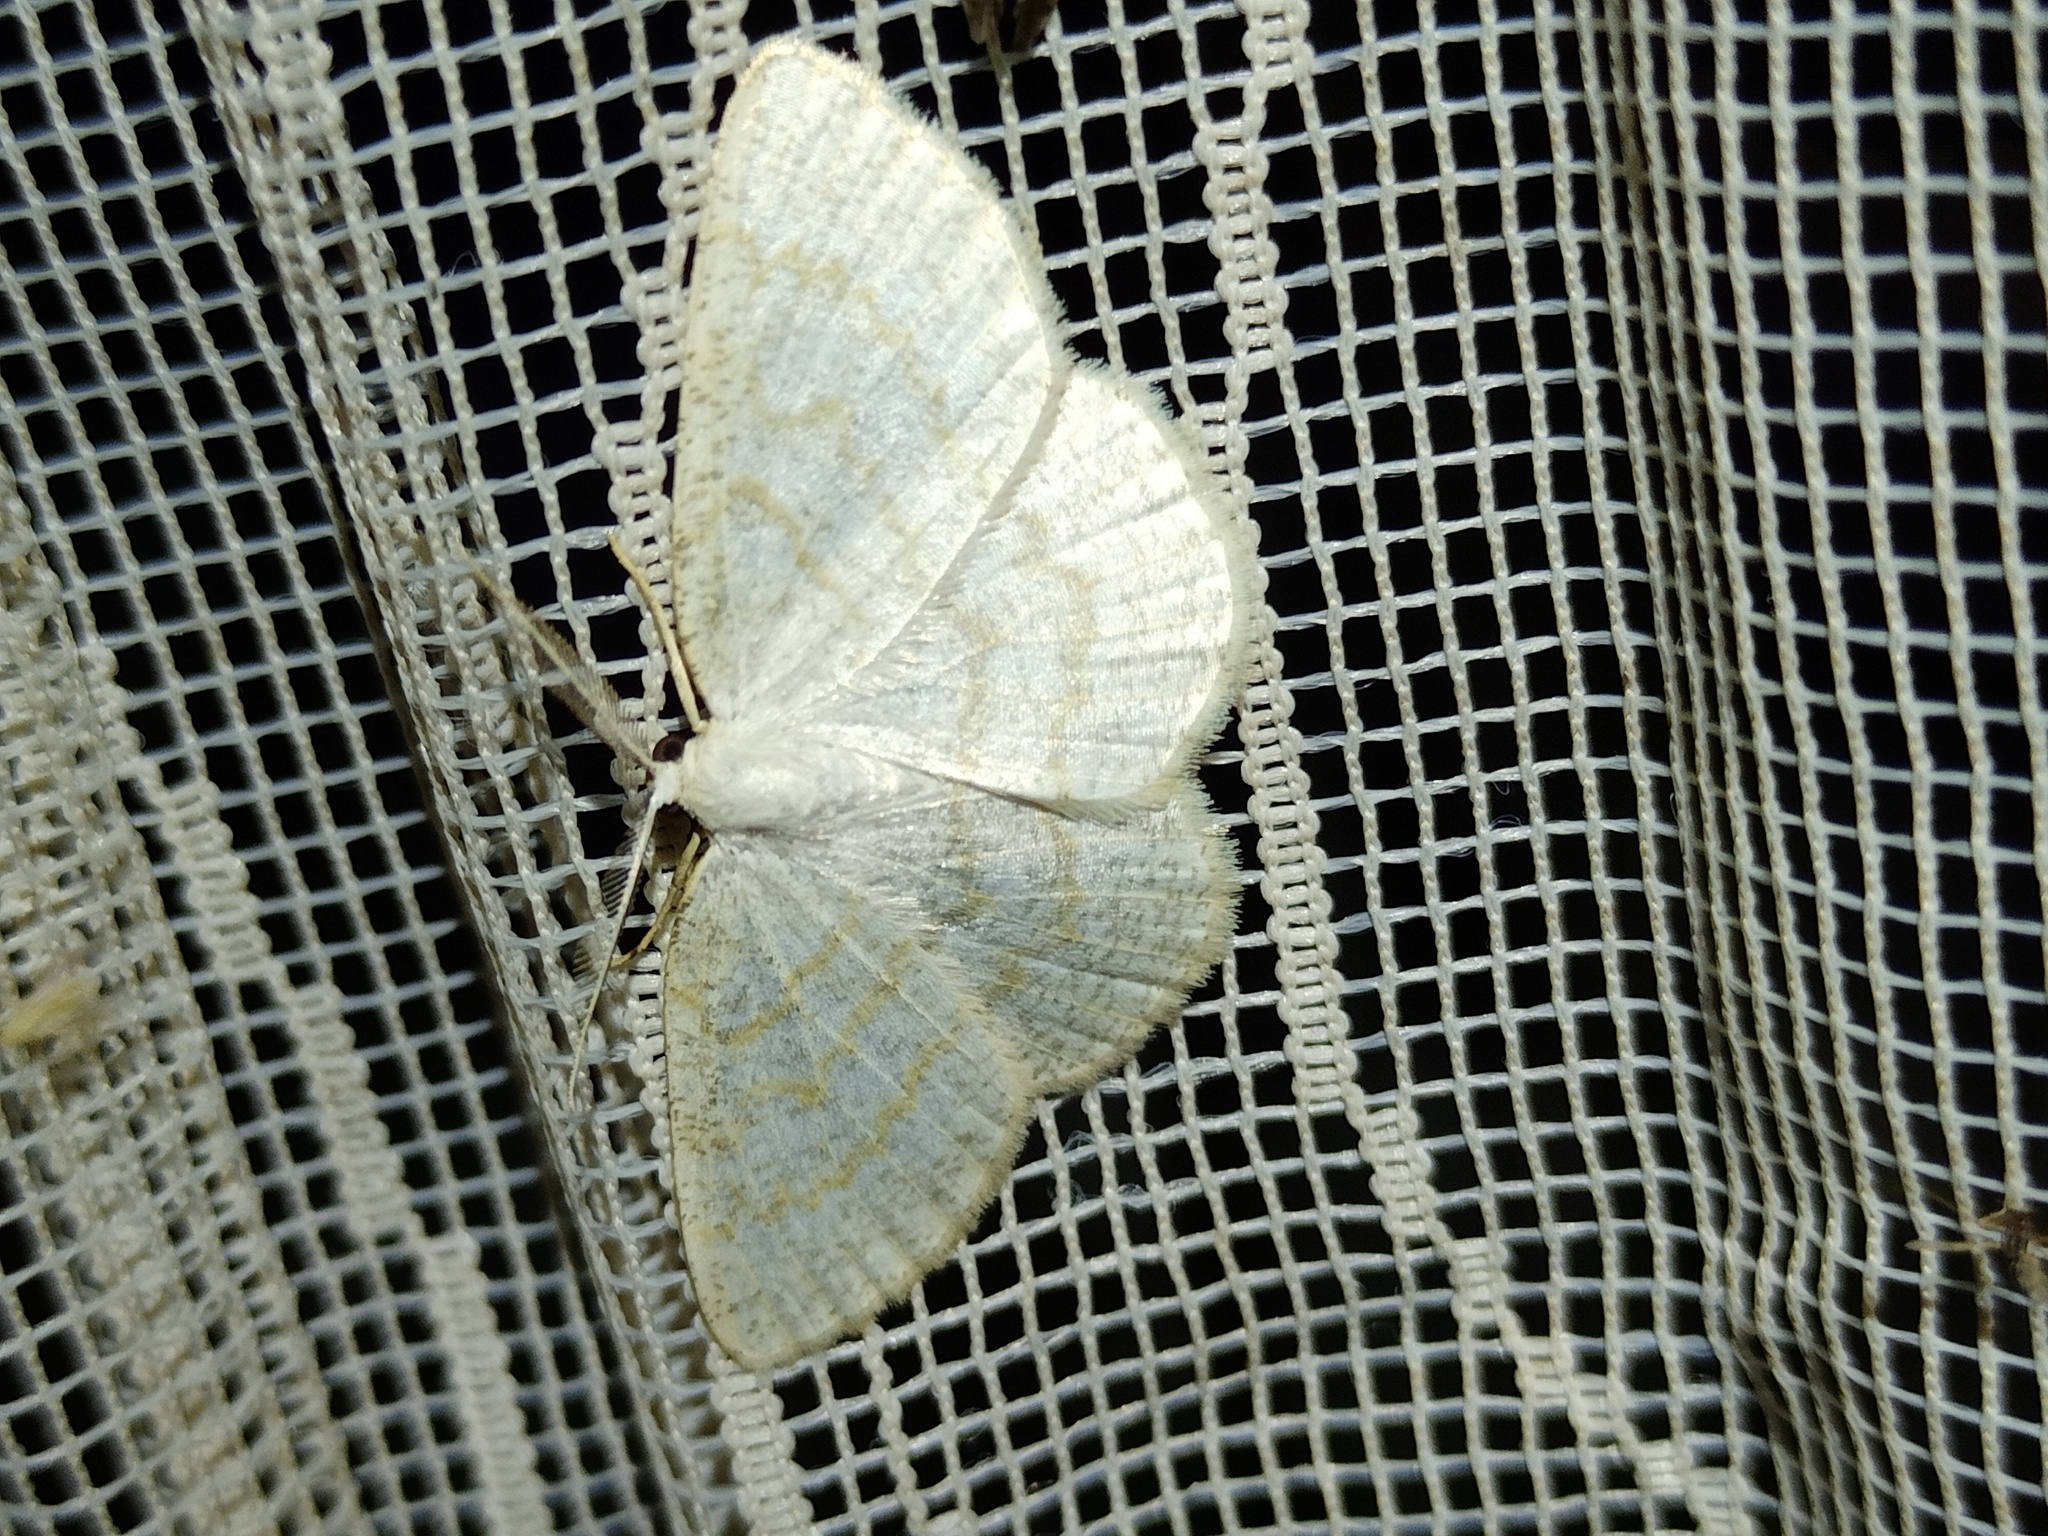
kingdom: Animalia
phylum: Arthropoda
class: Insecta
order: Lepidoptera
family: Geometridae
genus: Cabera
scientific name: Cabera exanthemata
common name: Common wave
